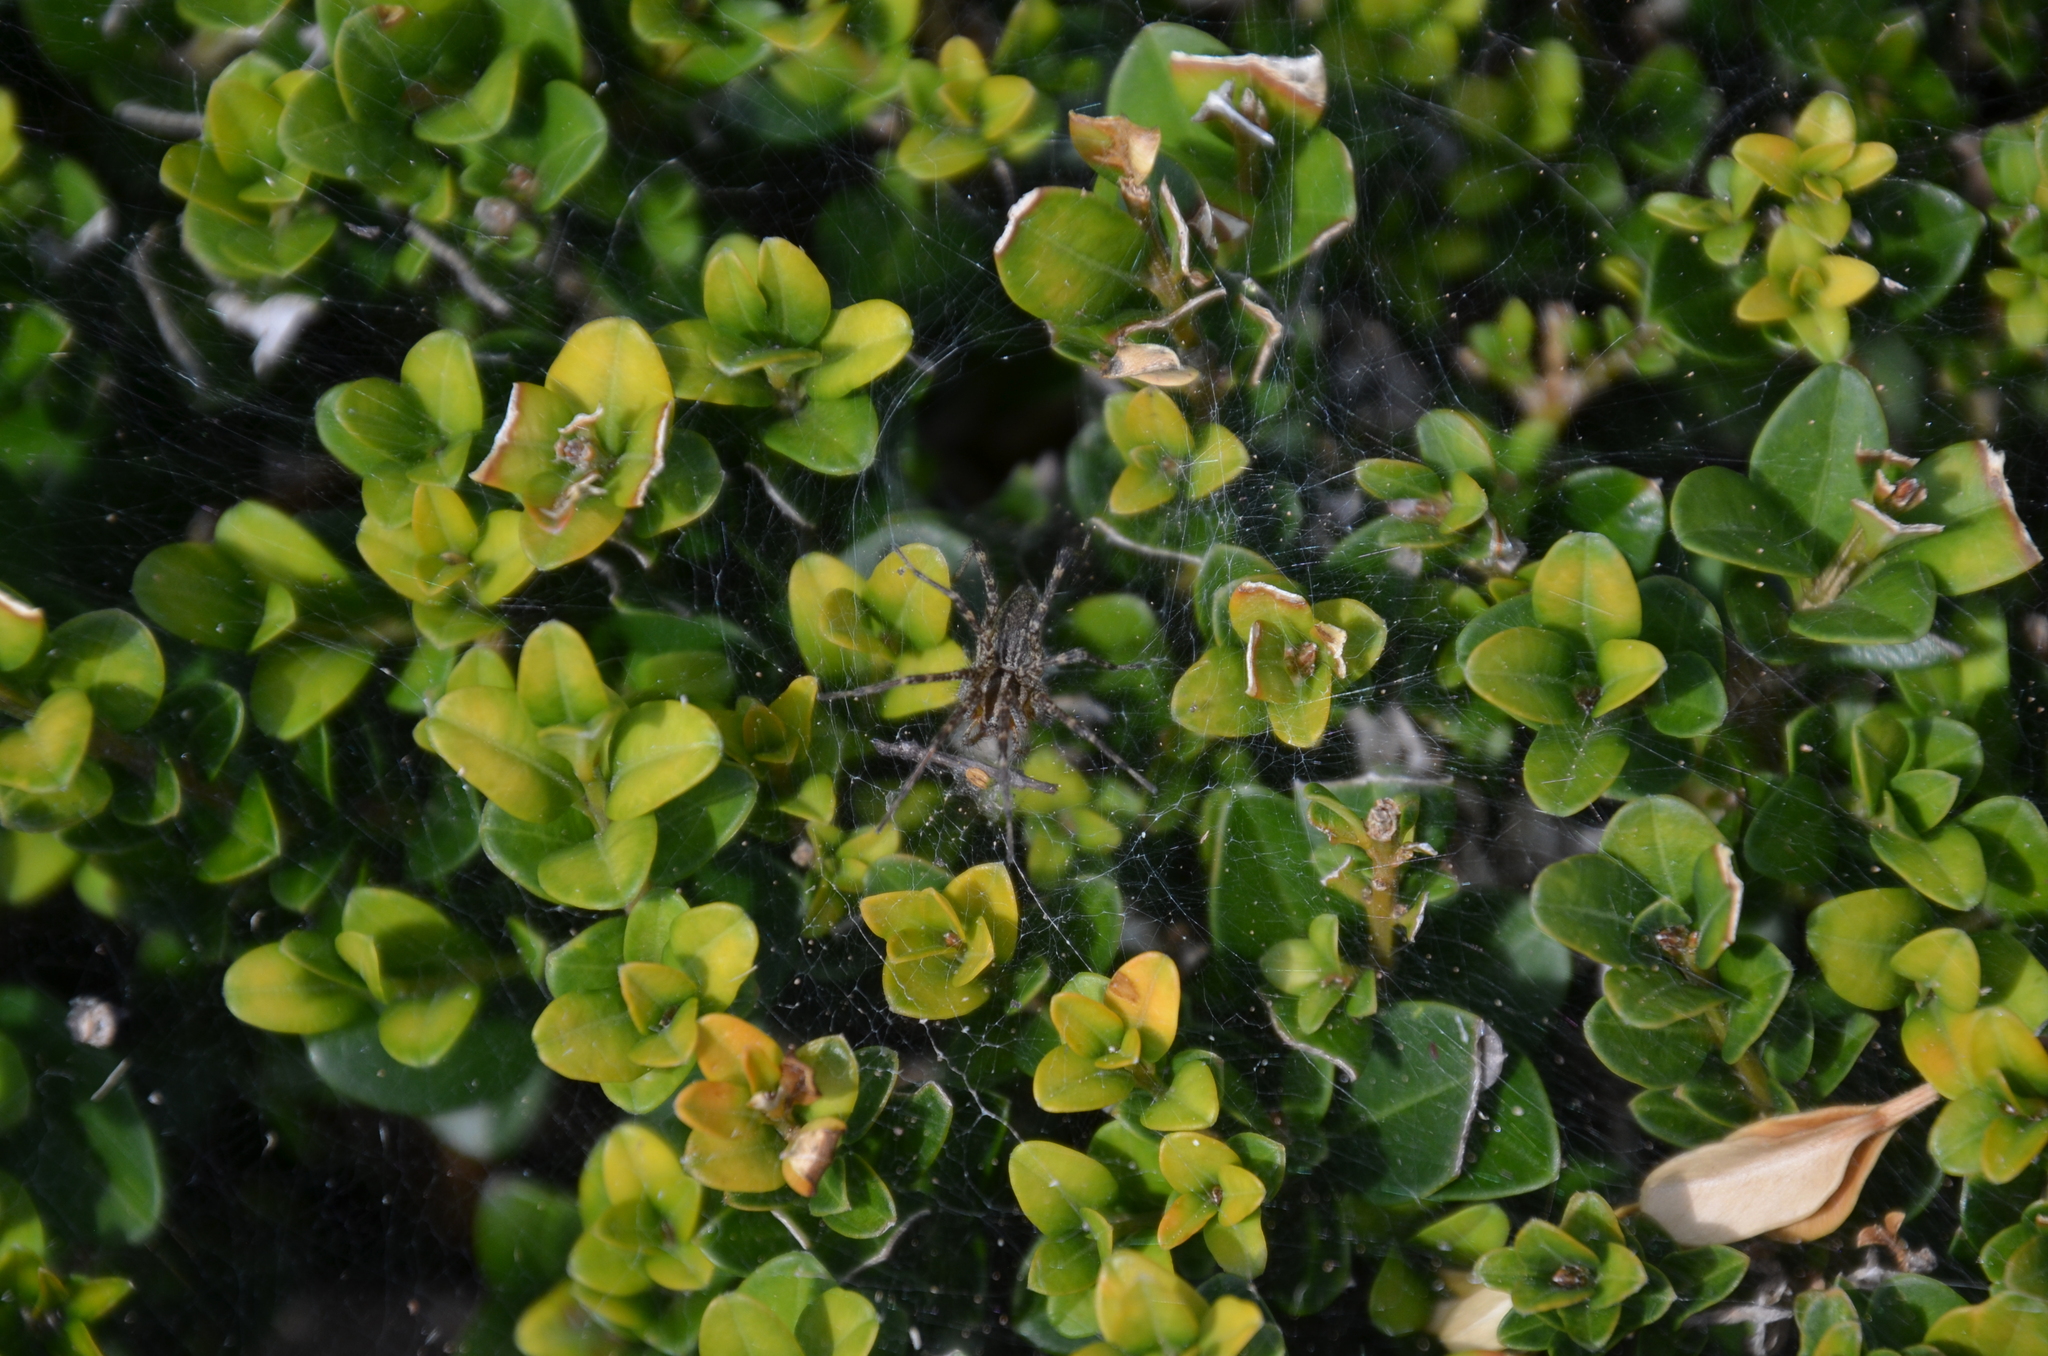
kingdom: Animalia
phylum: Arthropoda
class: Arachnida
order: Araneae
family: Agelenidae
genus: Agelenopsis
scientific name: Agelenopsis
